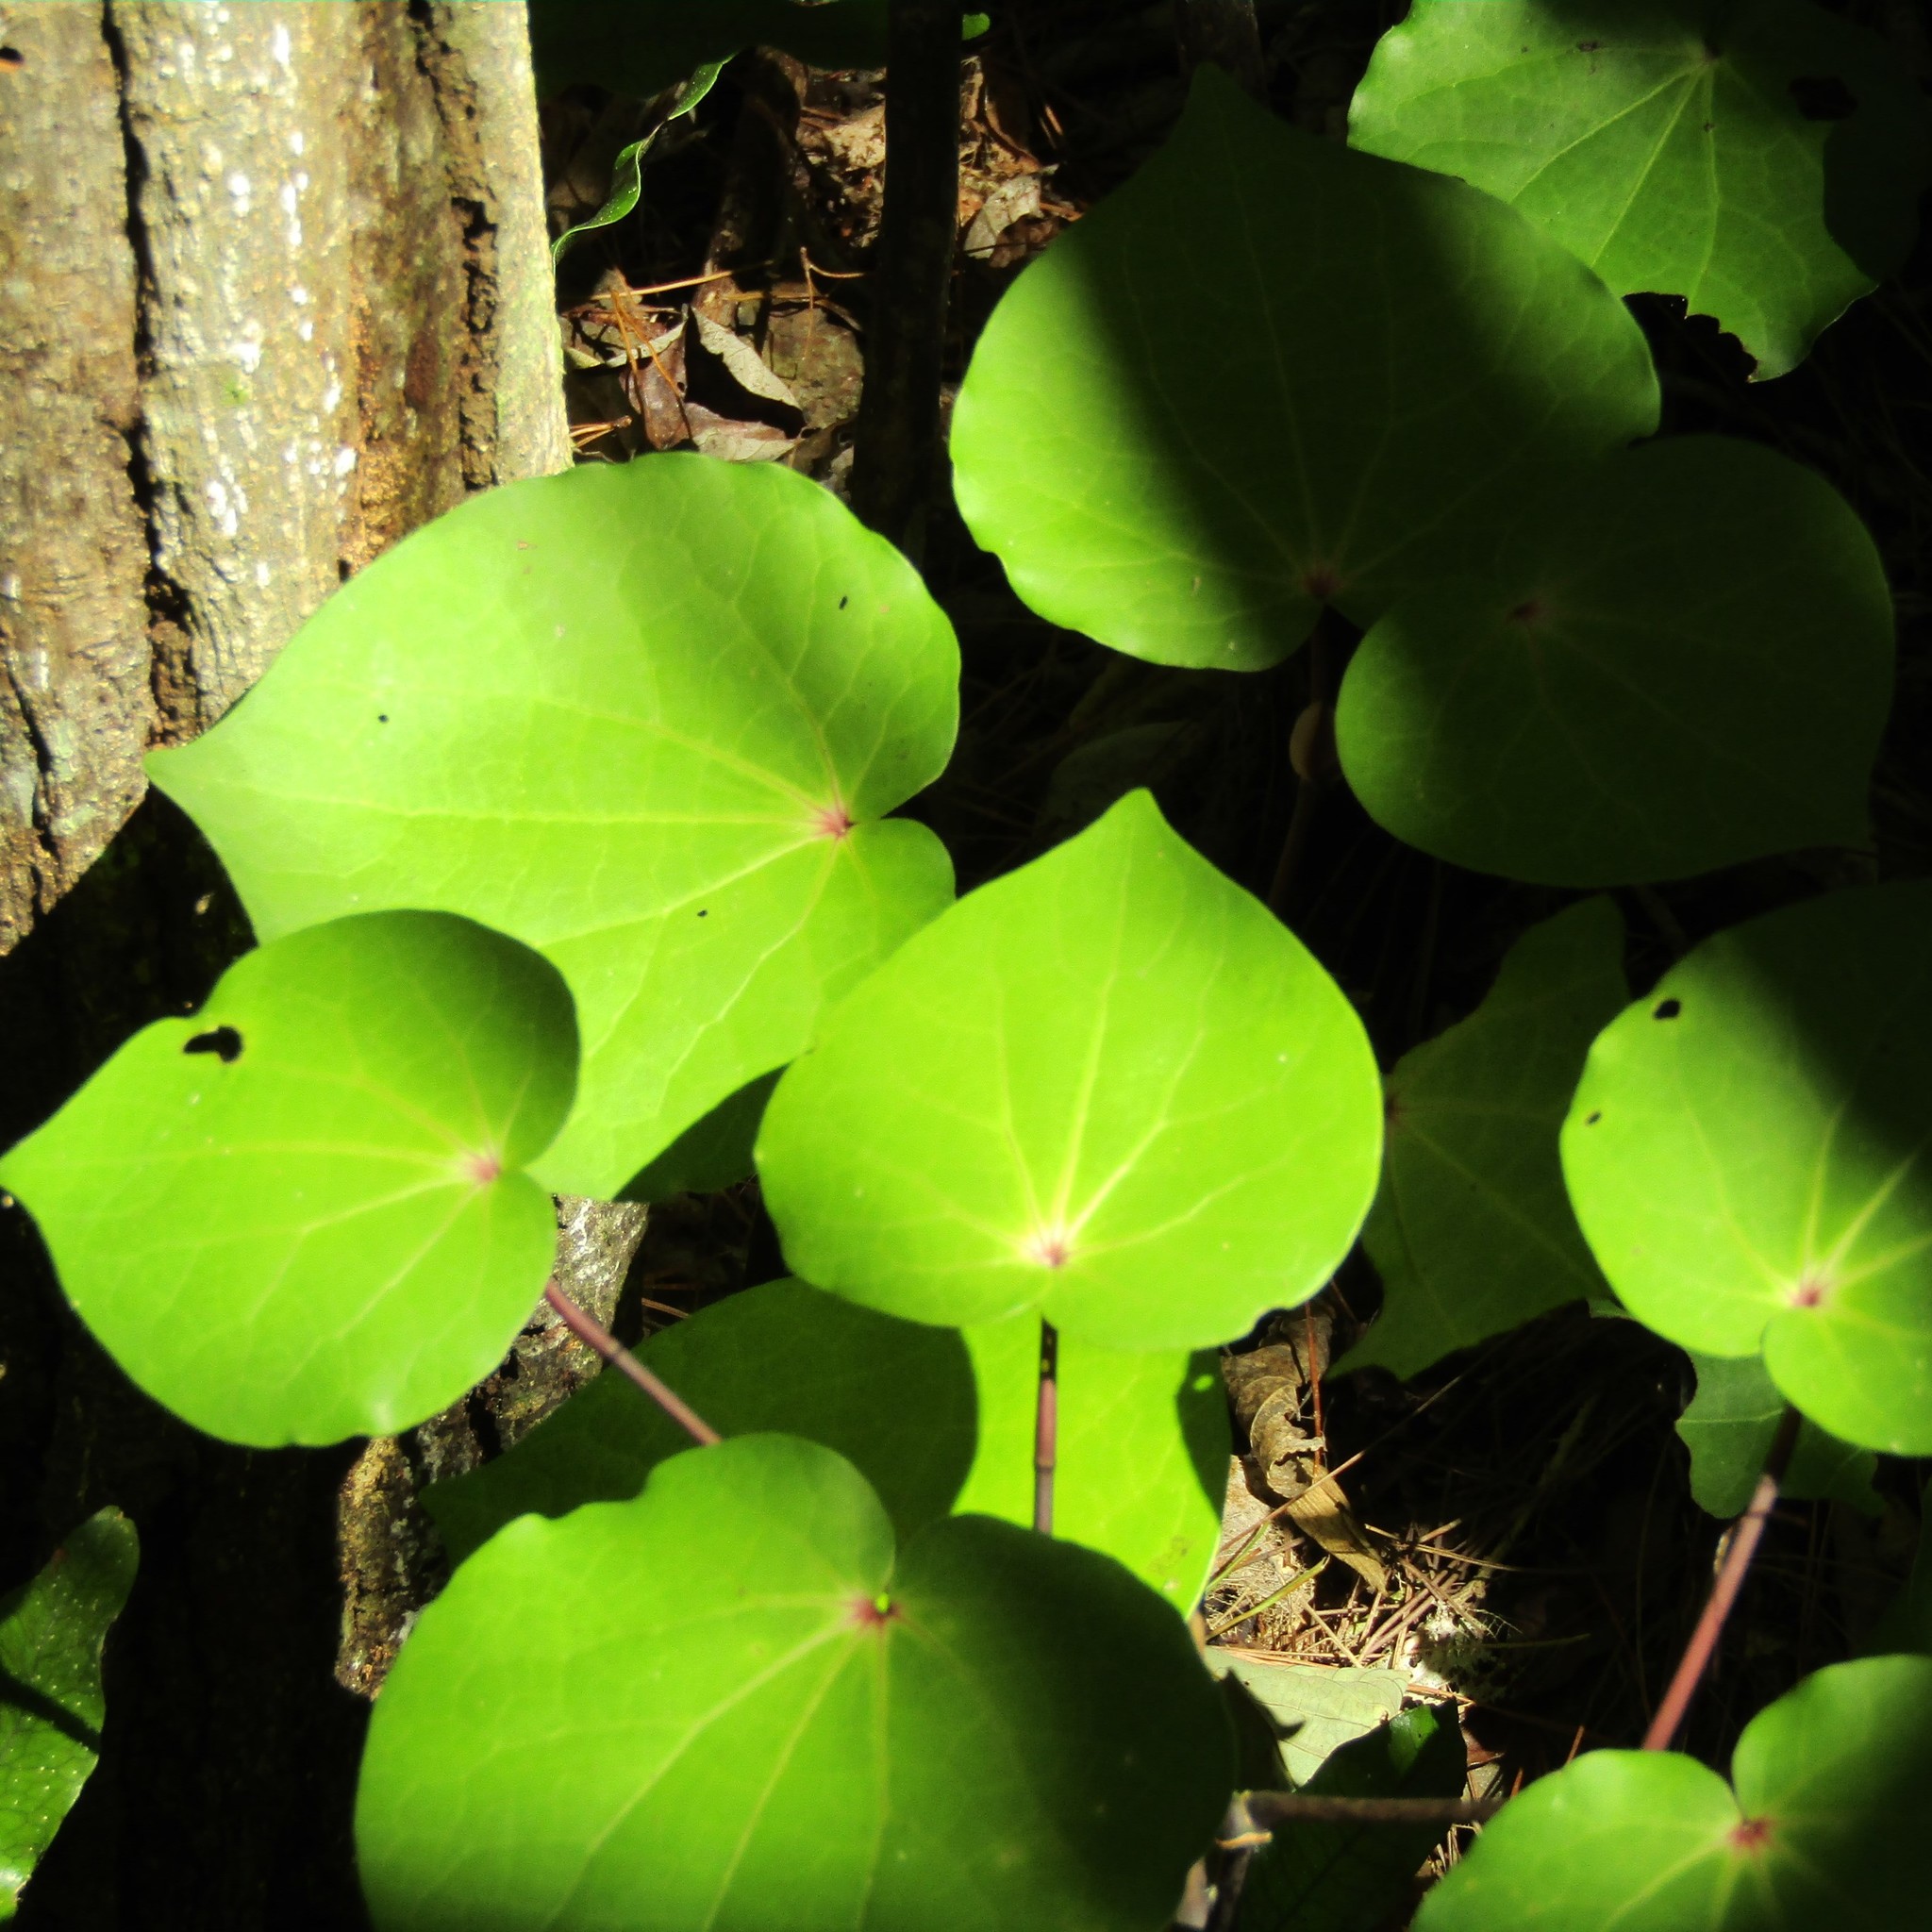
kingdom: Plantae
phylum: Tracheophyta
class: Magnoliopsida
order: Piperales
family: Piperaceae
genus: Macropiper
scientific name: Macropiper excelsum
